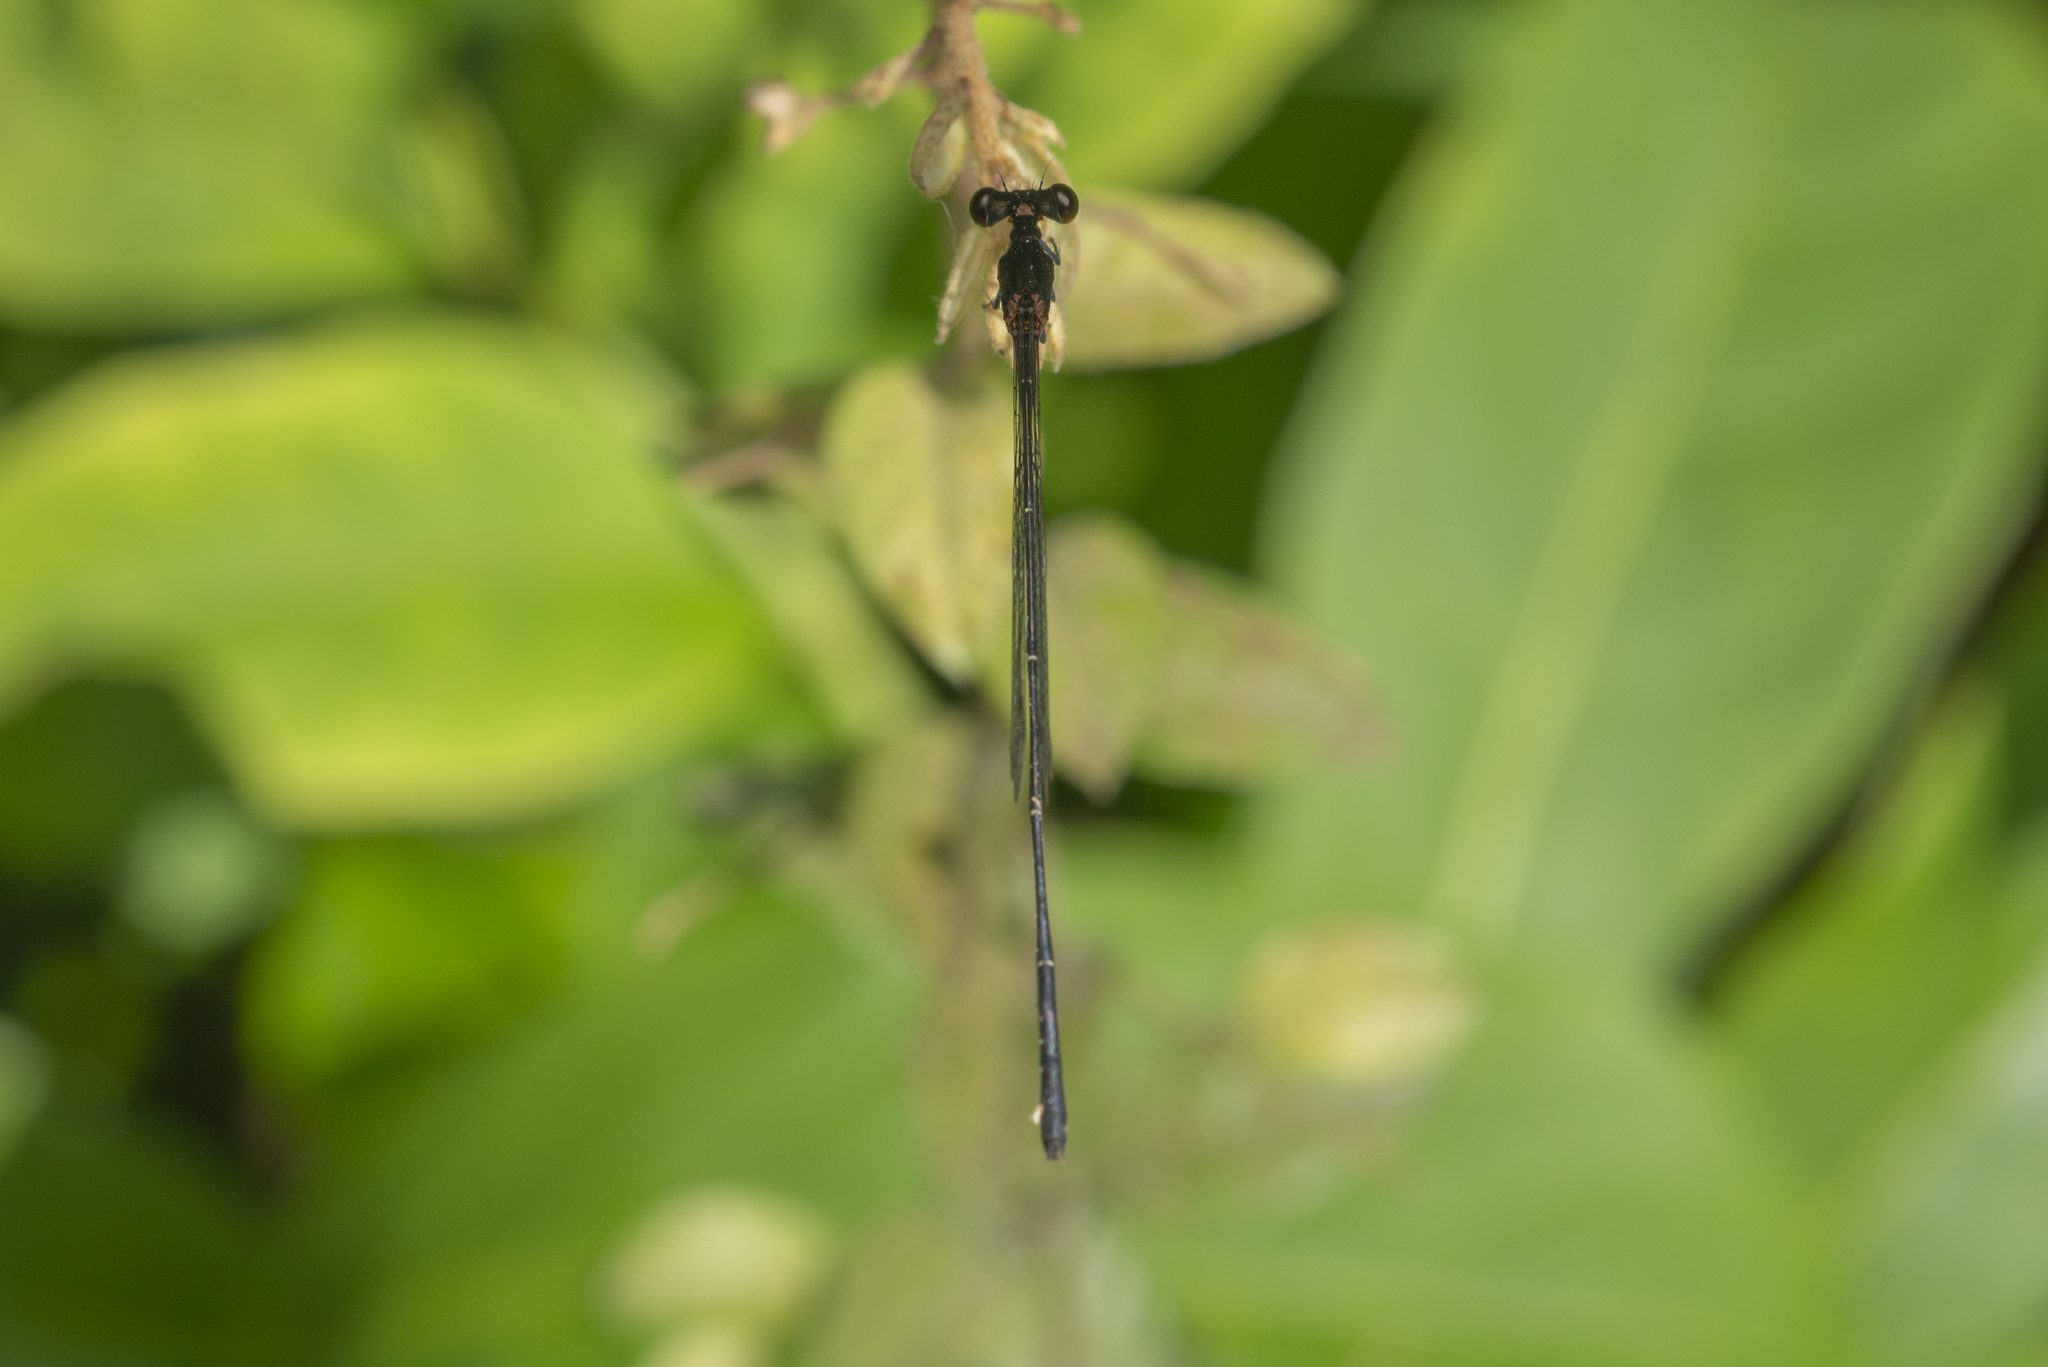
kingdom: Animalia
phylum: Arthropoda
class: Insecta
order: Odonata
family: Platycnemididae
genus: Prodasineura
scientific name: Prodasineura autumnalis
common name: Black threadtail
